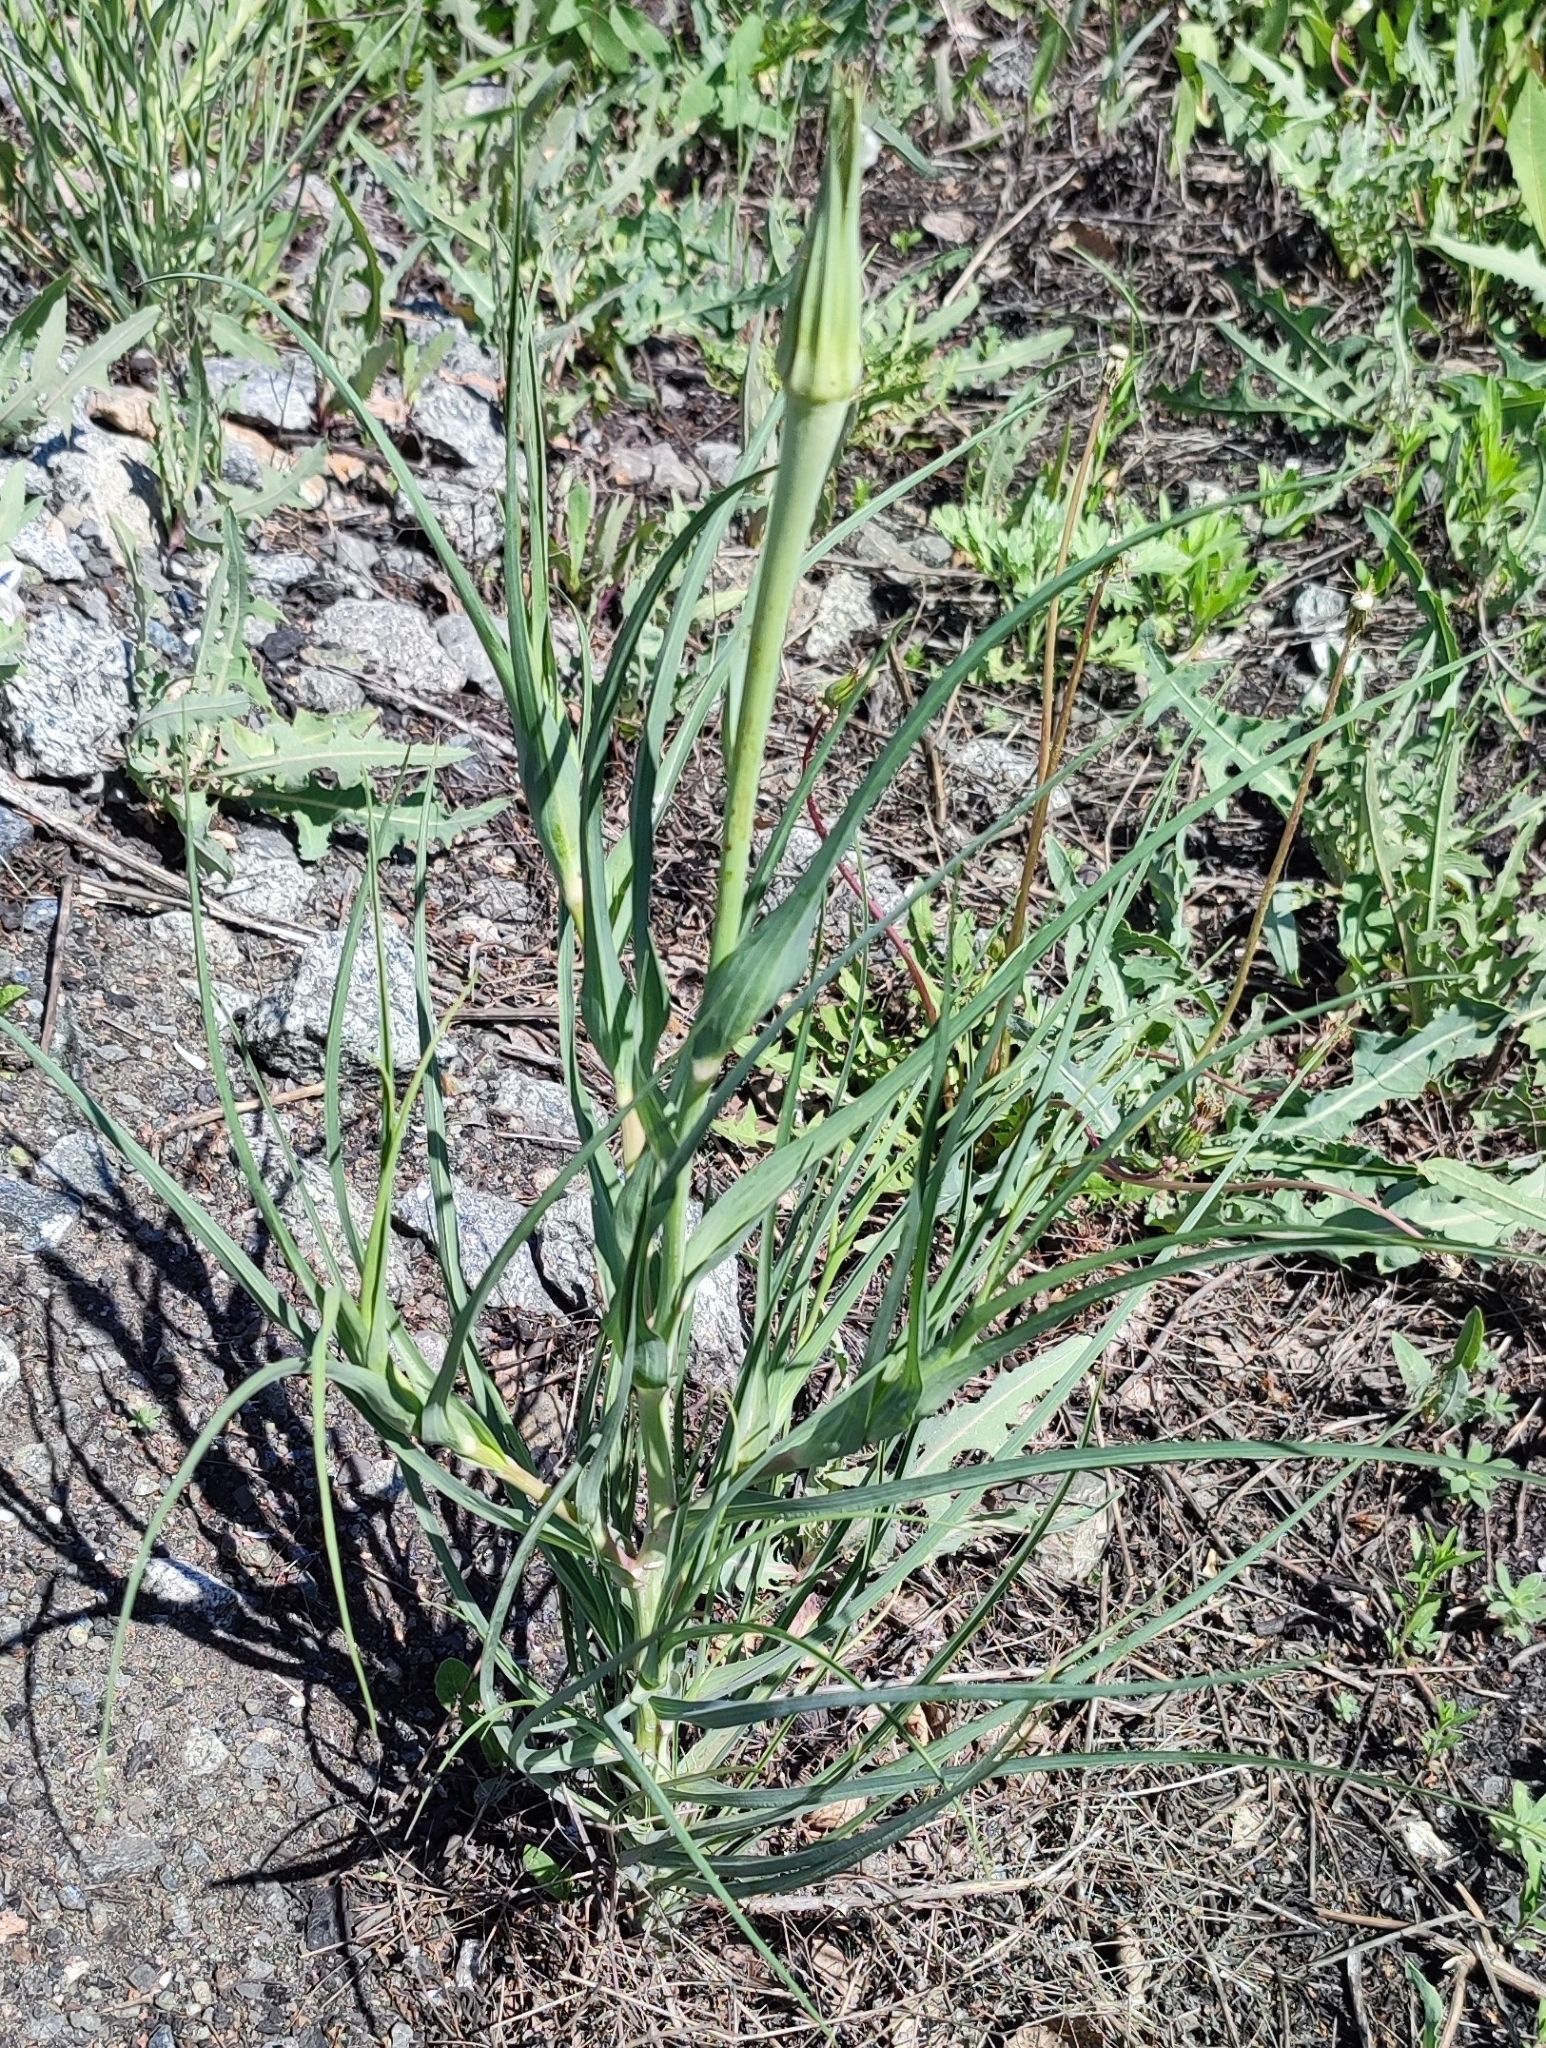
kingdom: Plantae
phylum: Tracheophyta
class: Magnoliopsida
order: Asterales
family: Asteraceae
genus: Tragopogon
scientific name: Tragopogon dubius
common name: Yellow salsify
